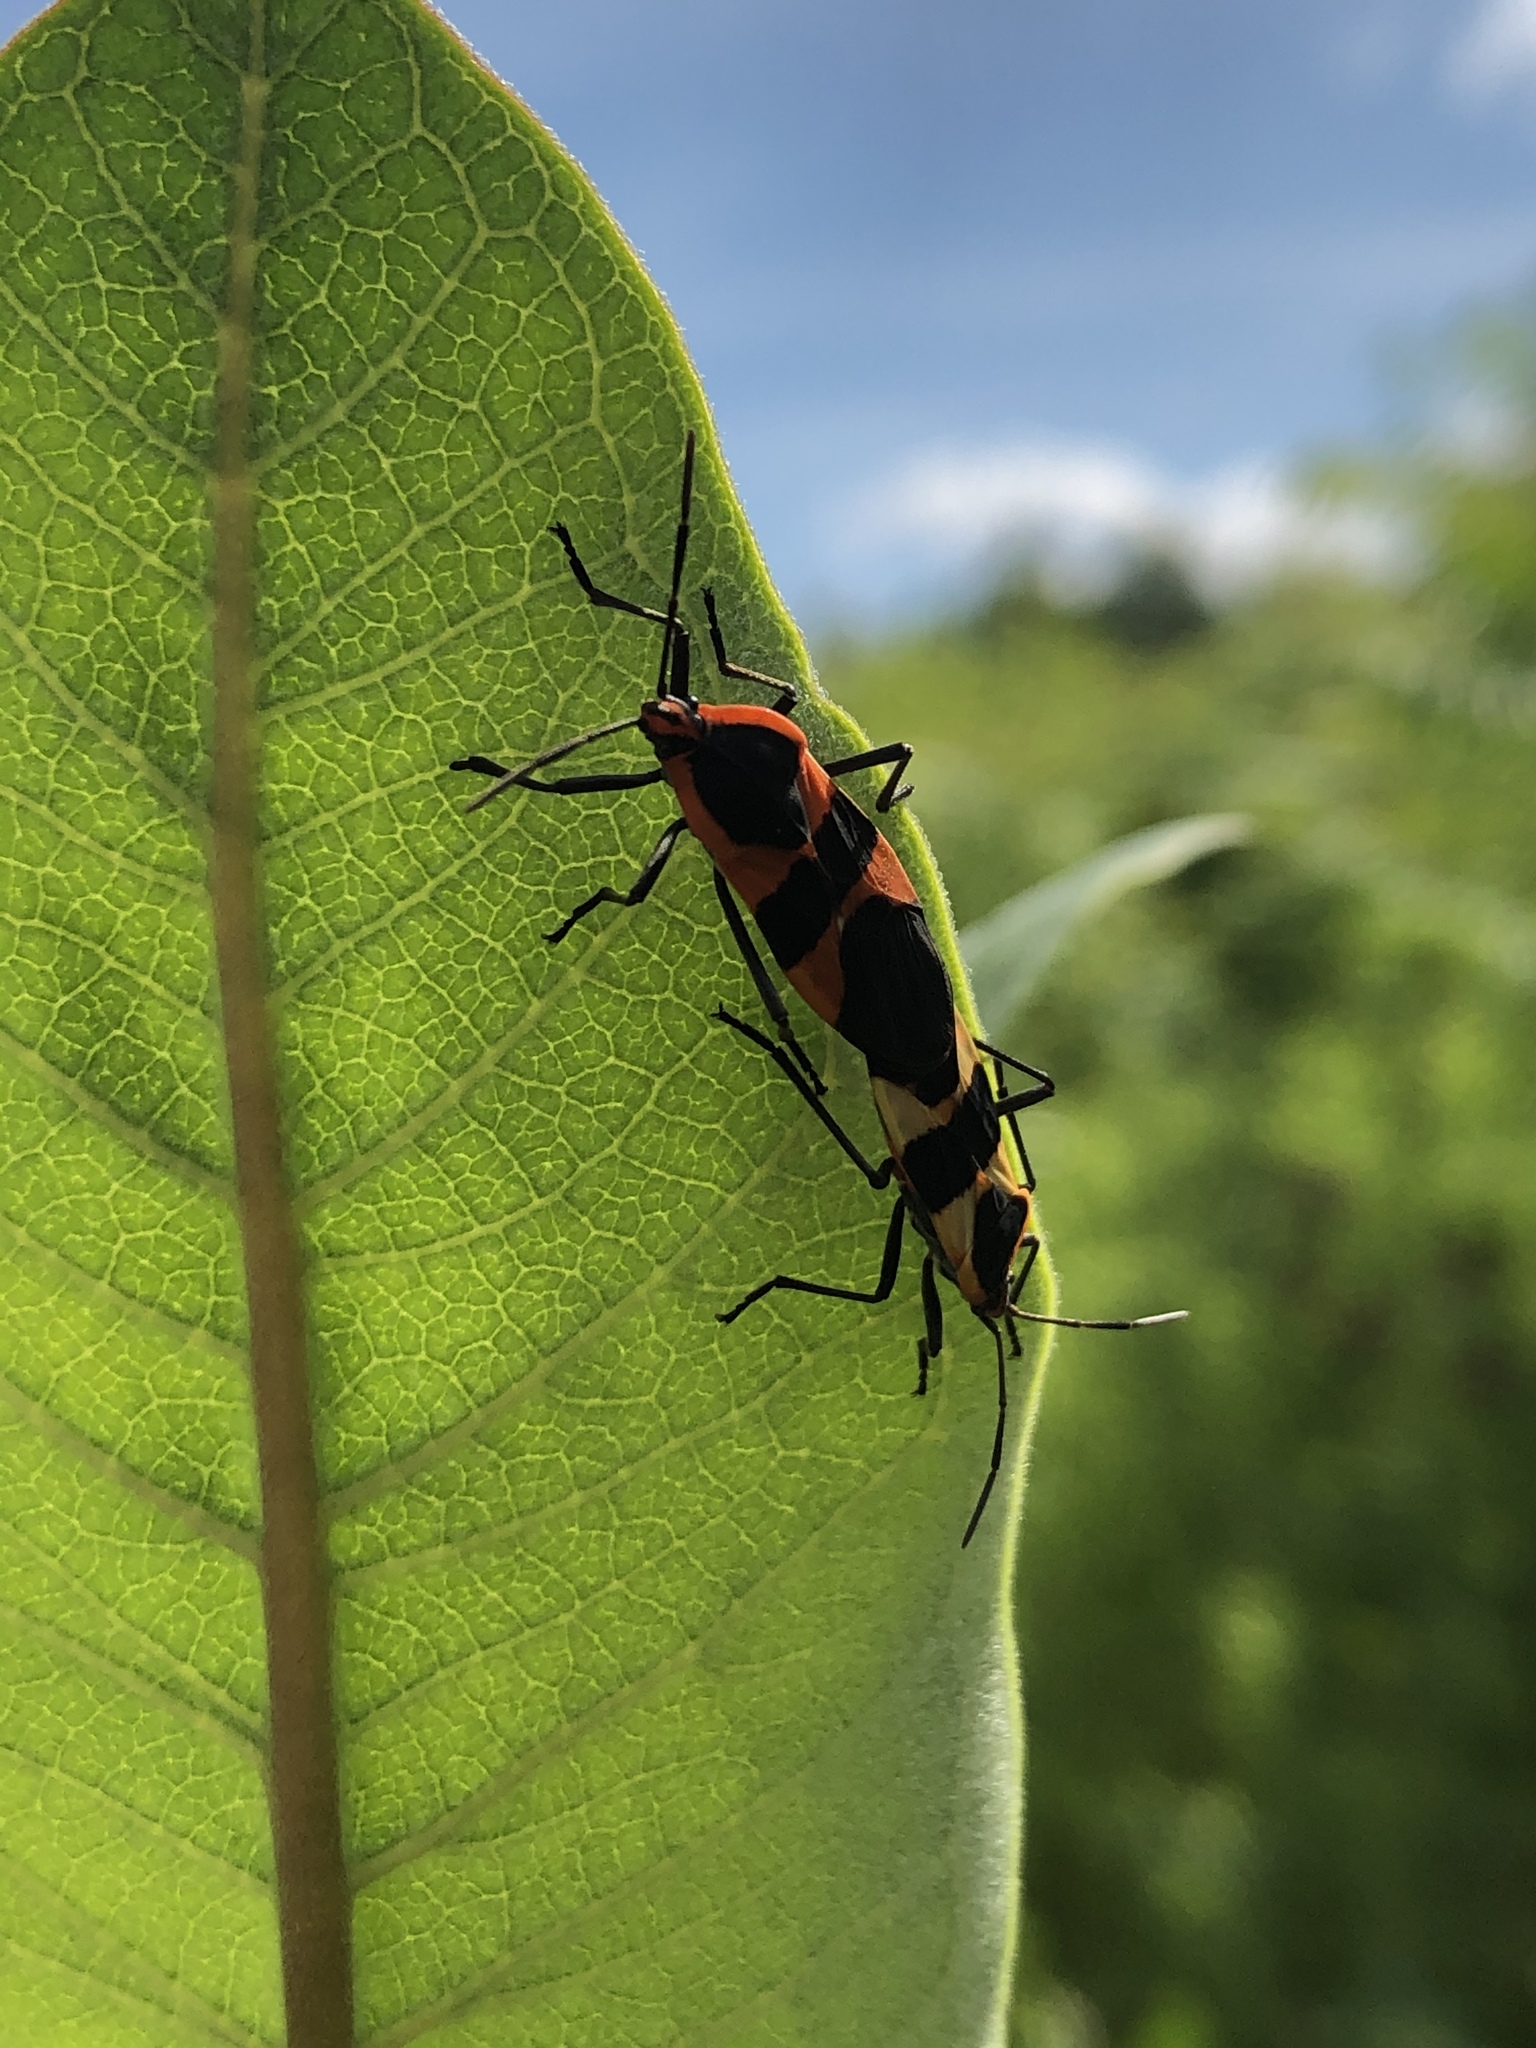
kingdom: Animalia
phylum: Arthropoda
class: Insecta
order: Hemiptera
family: Lygaeidae
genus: Oncopeltus
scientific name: Oncopeltus fasciatus
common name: Large milkweed bug
